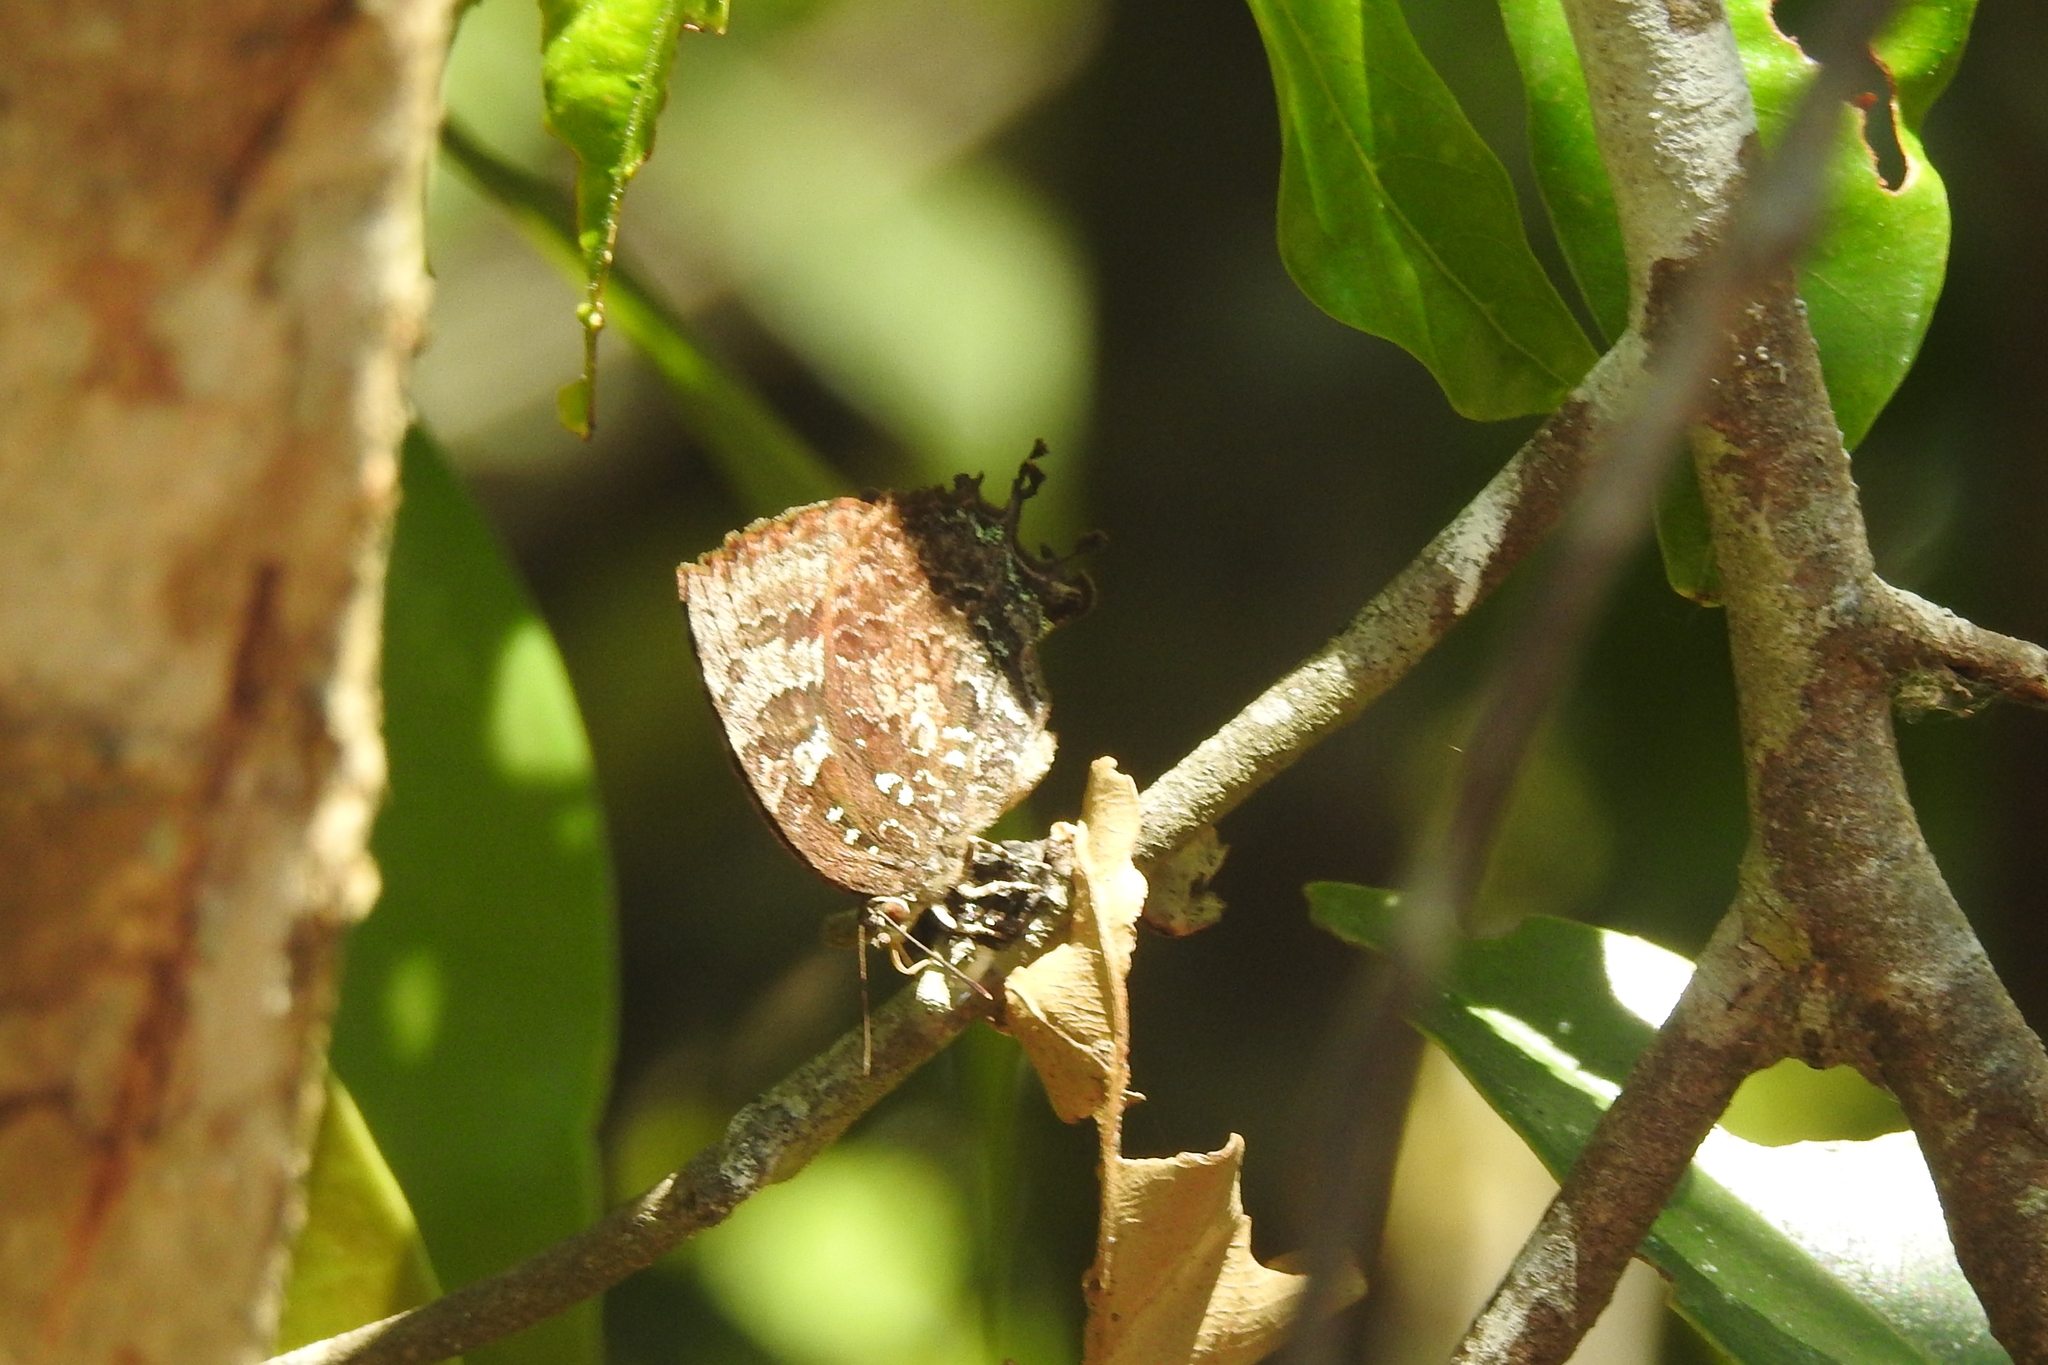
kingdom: Animalia
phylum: Arthropoda
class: Insecta
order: Lepidoptera
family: Lycaenidae
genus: Thaduka
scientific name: Thaduka multicaudata
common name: Many-tailed oakblue
